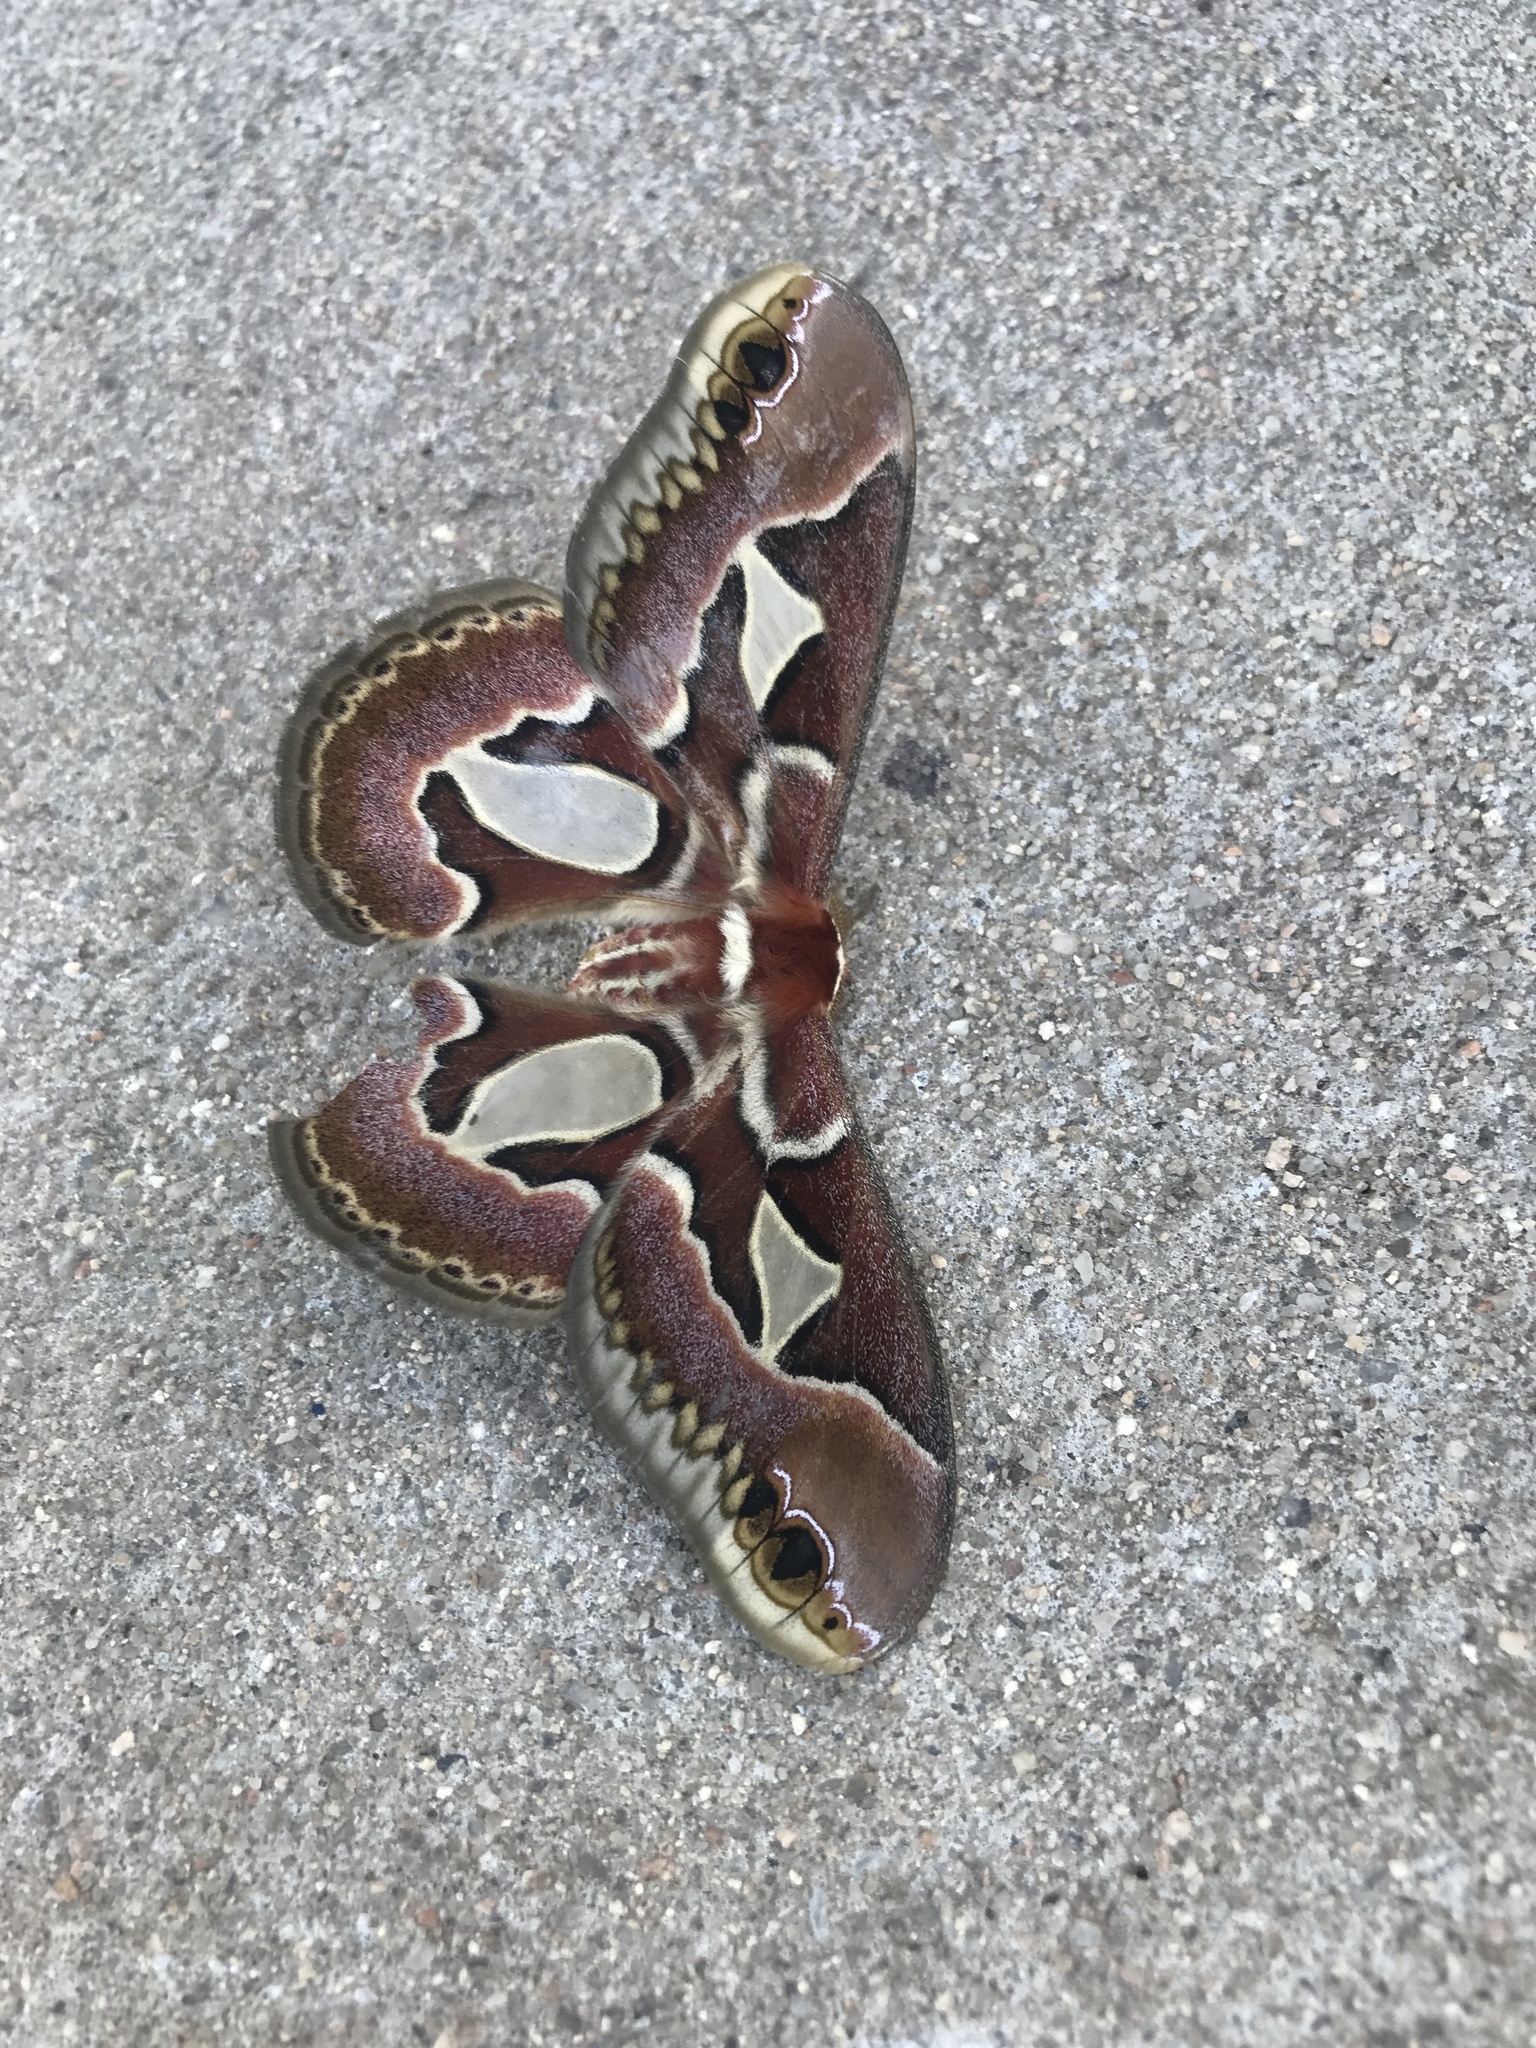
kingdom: Animalia
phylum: Arthropoda
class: Insecta
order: Lepidoptera
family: Saturniidae
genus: Rothschildia
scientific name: Rothschildia jacobaeae
